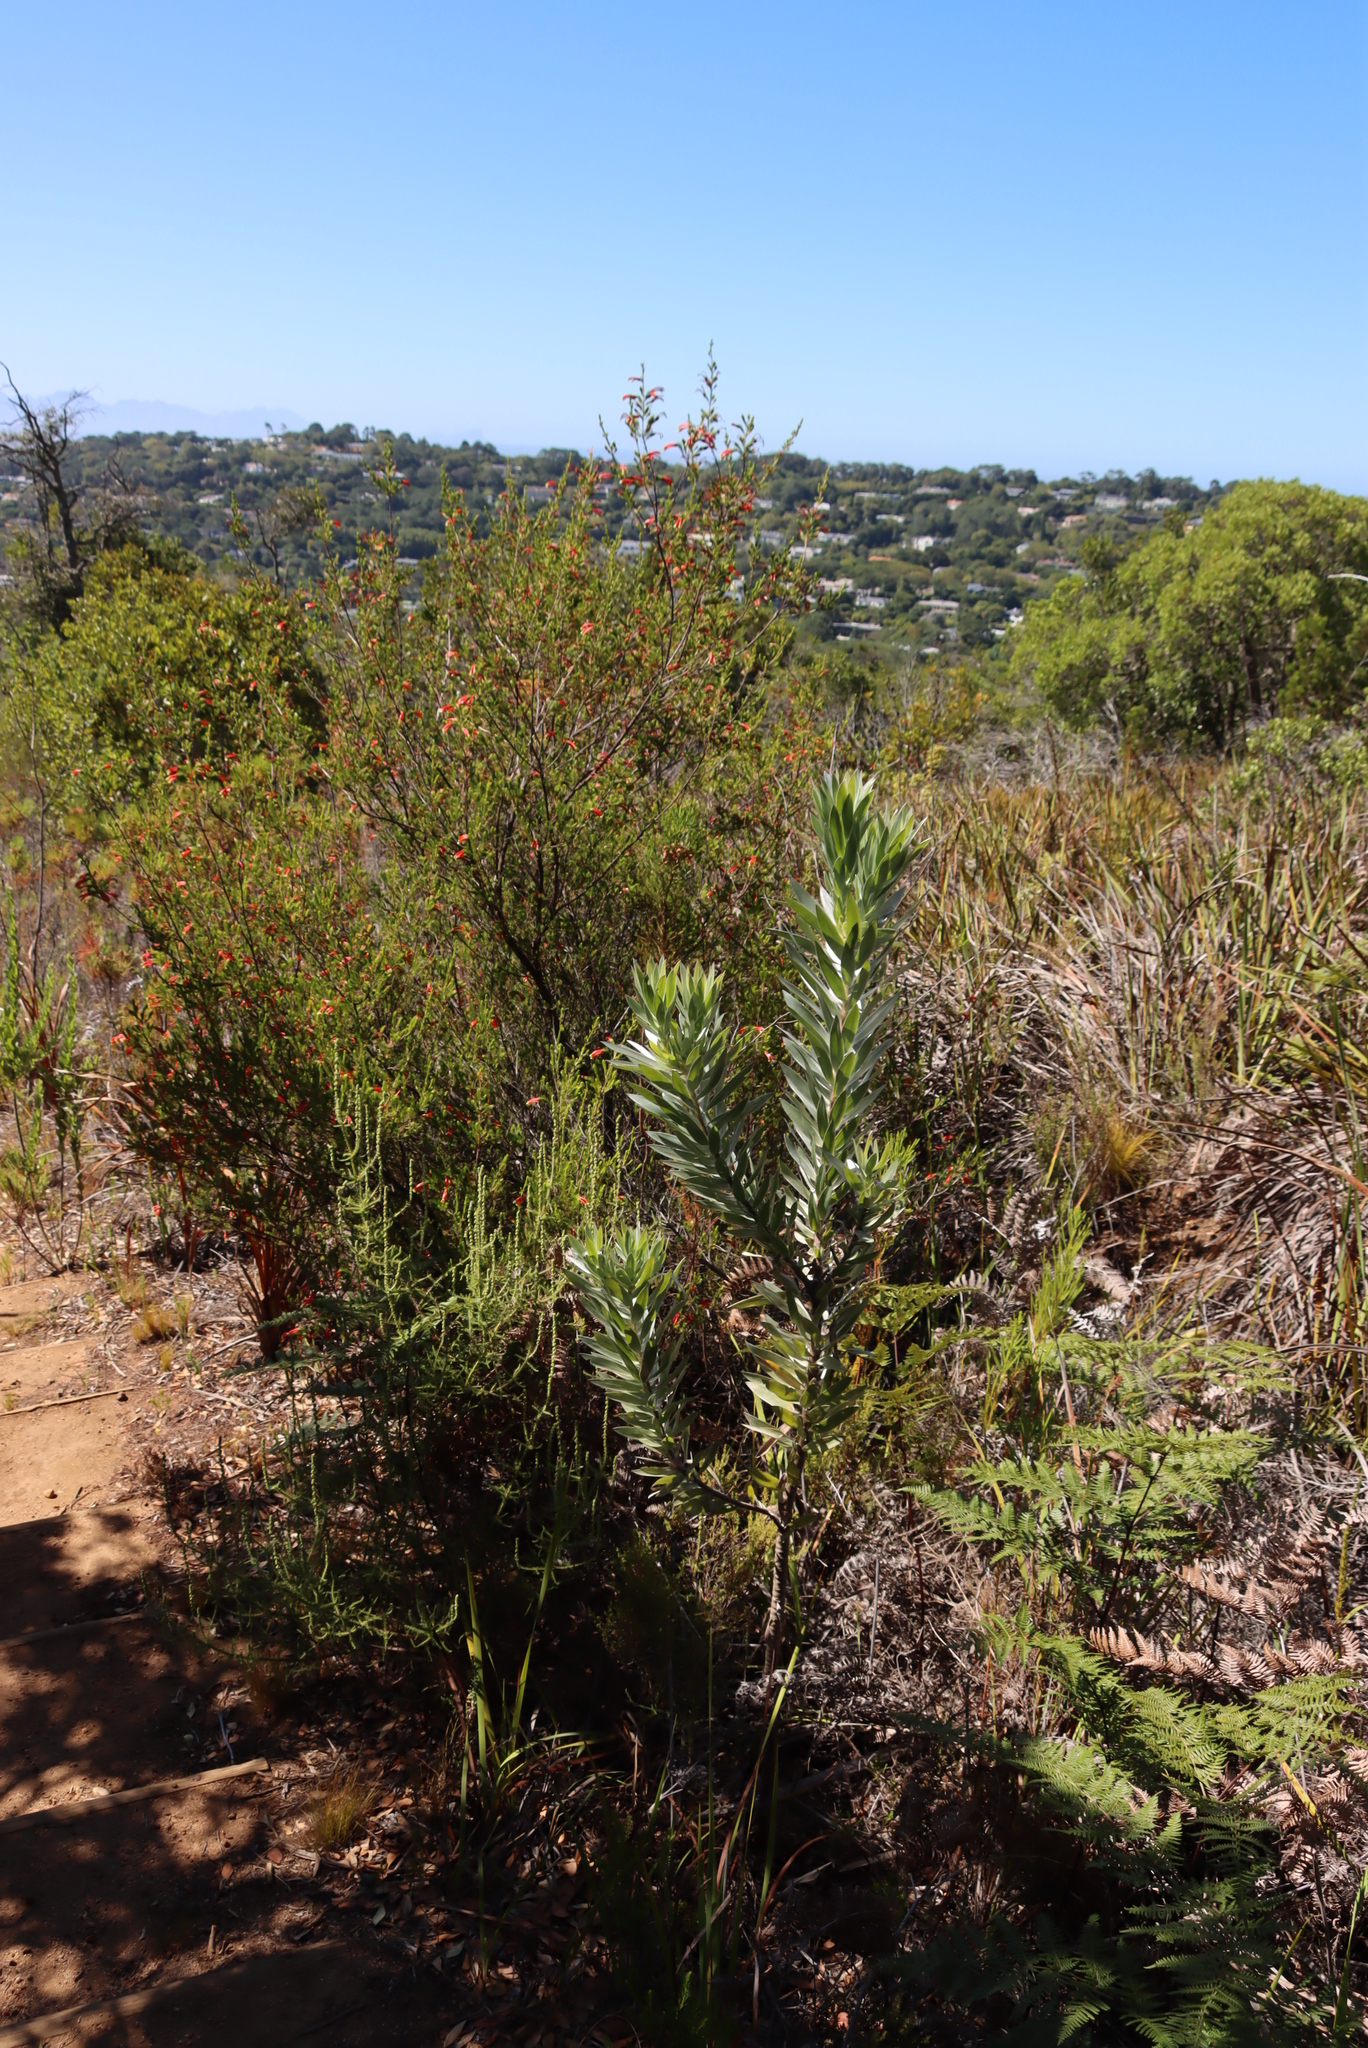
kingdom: Plantae
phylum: Tracheophyta
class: Magnoliopsida
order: Proteales
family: Proteaceae
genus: Leucadendron
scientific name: Leucadendron argenteum
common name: Cape silver tree
